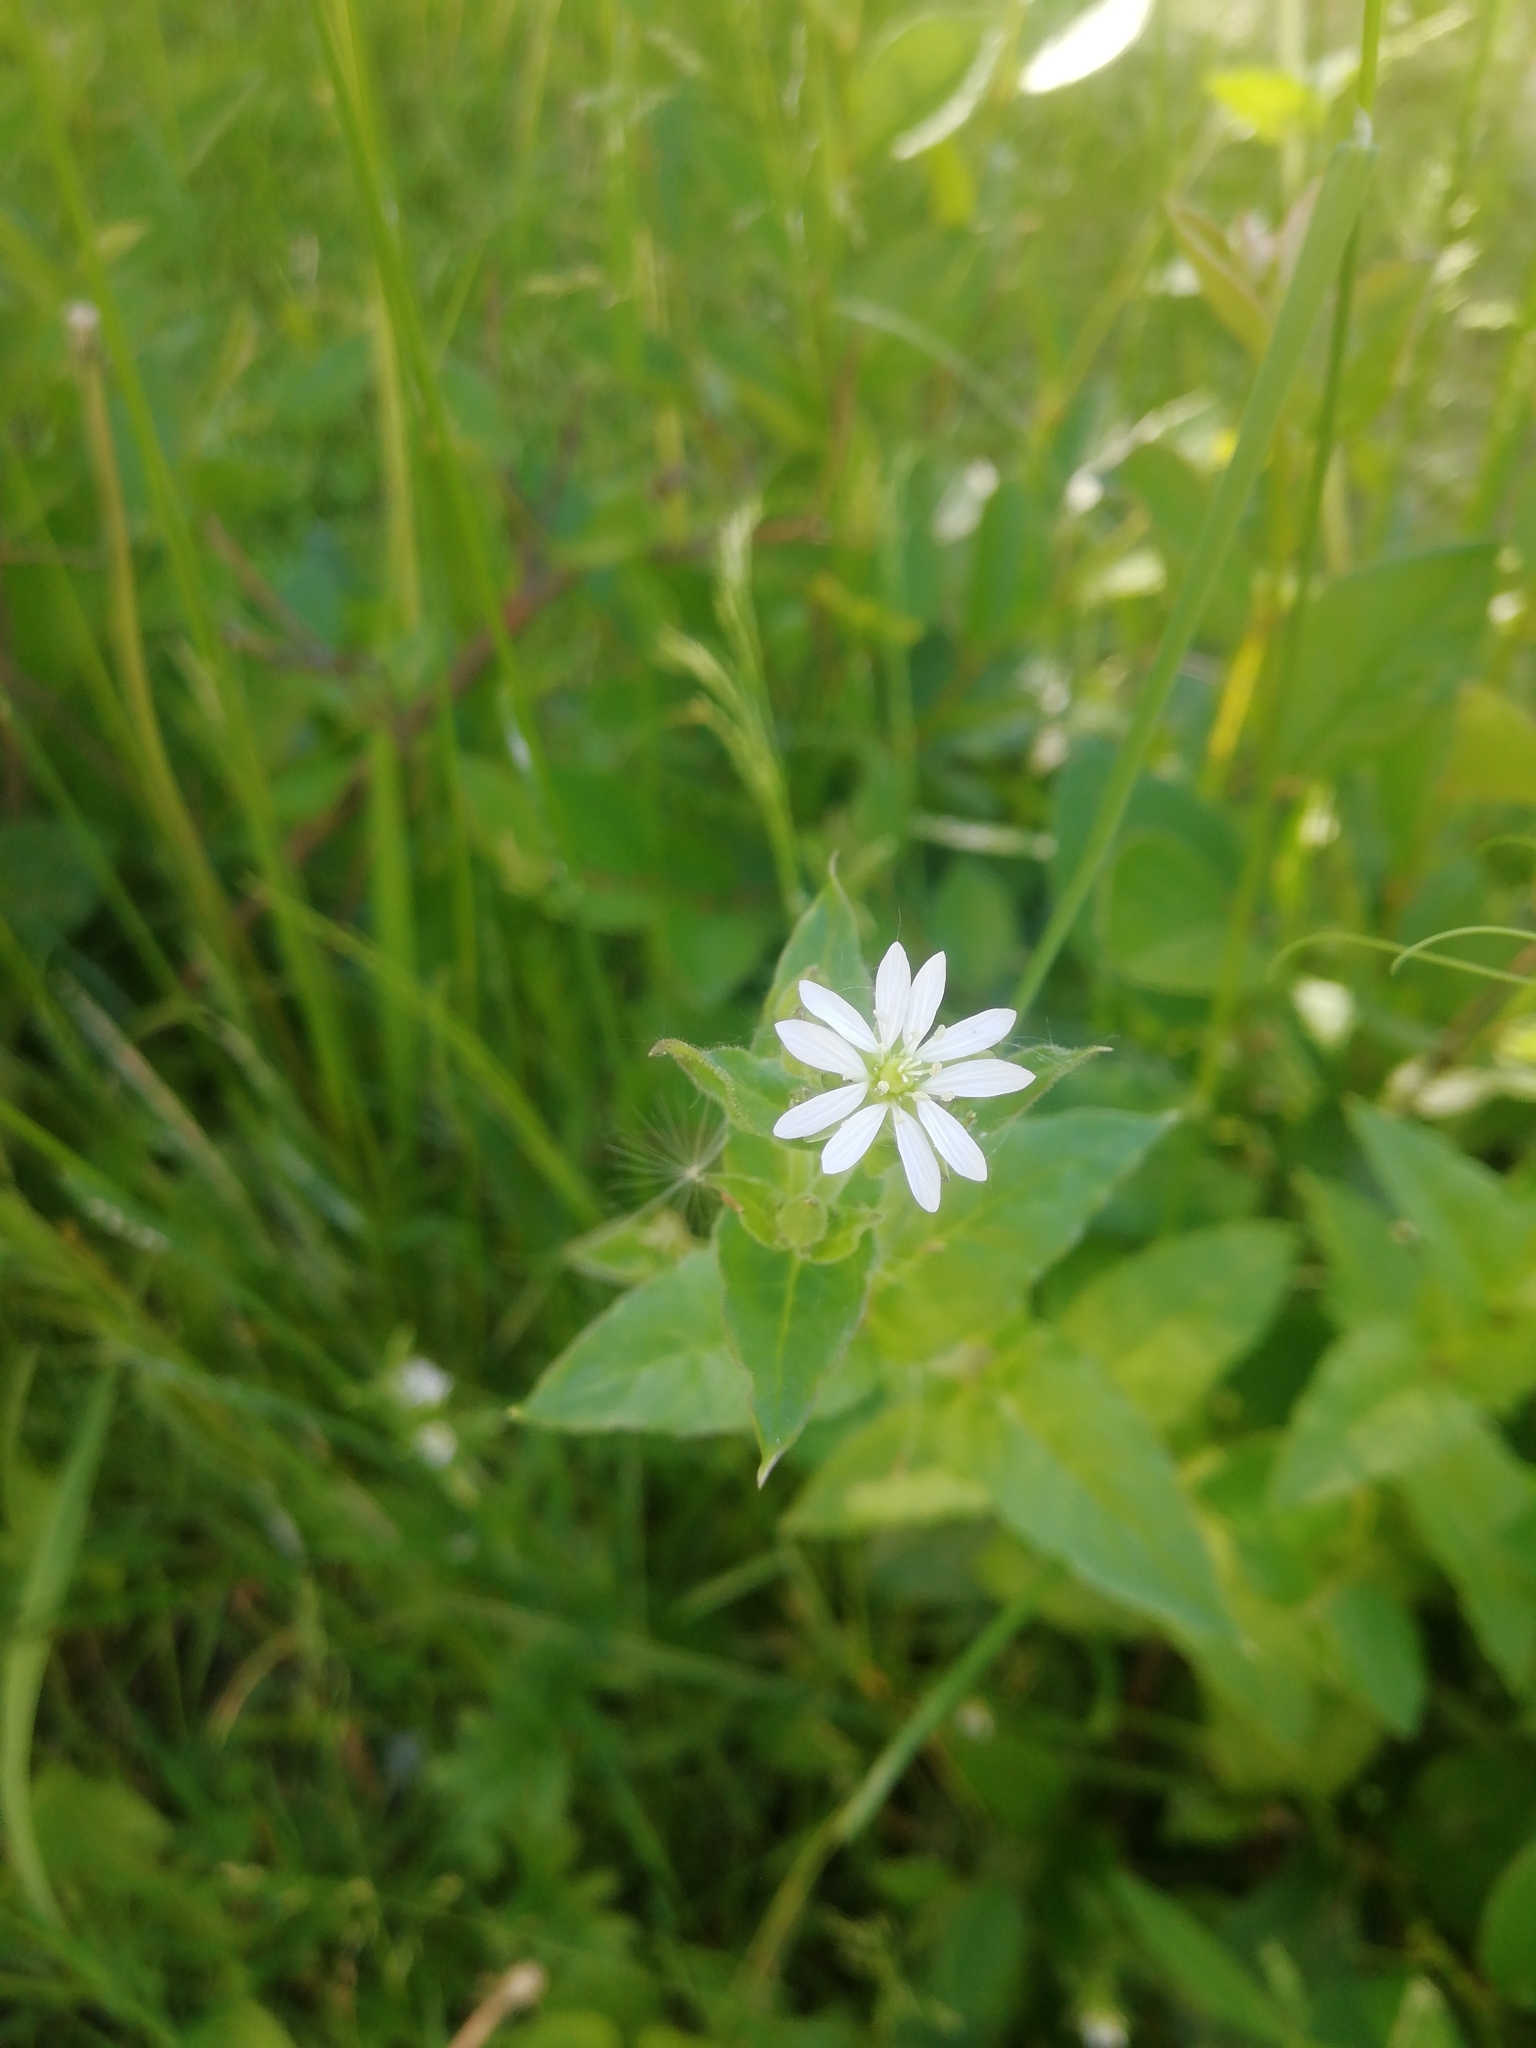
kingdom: Plantae
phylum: Tracheophyta
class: Magnoliopsida
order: Caryophyllales
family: Caryophyllaceae
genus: Stellaria
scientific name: Stellaria aquatica
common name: Water chickweed
